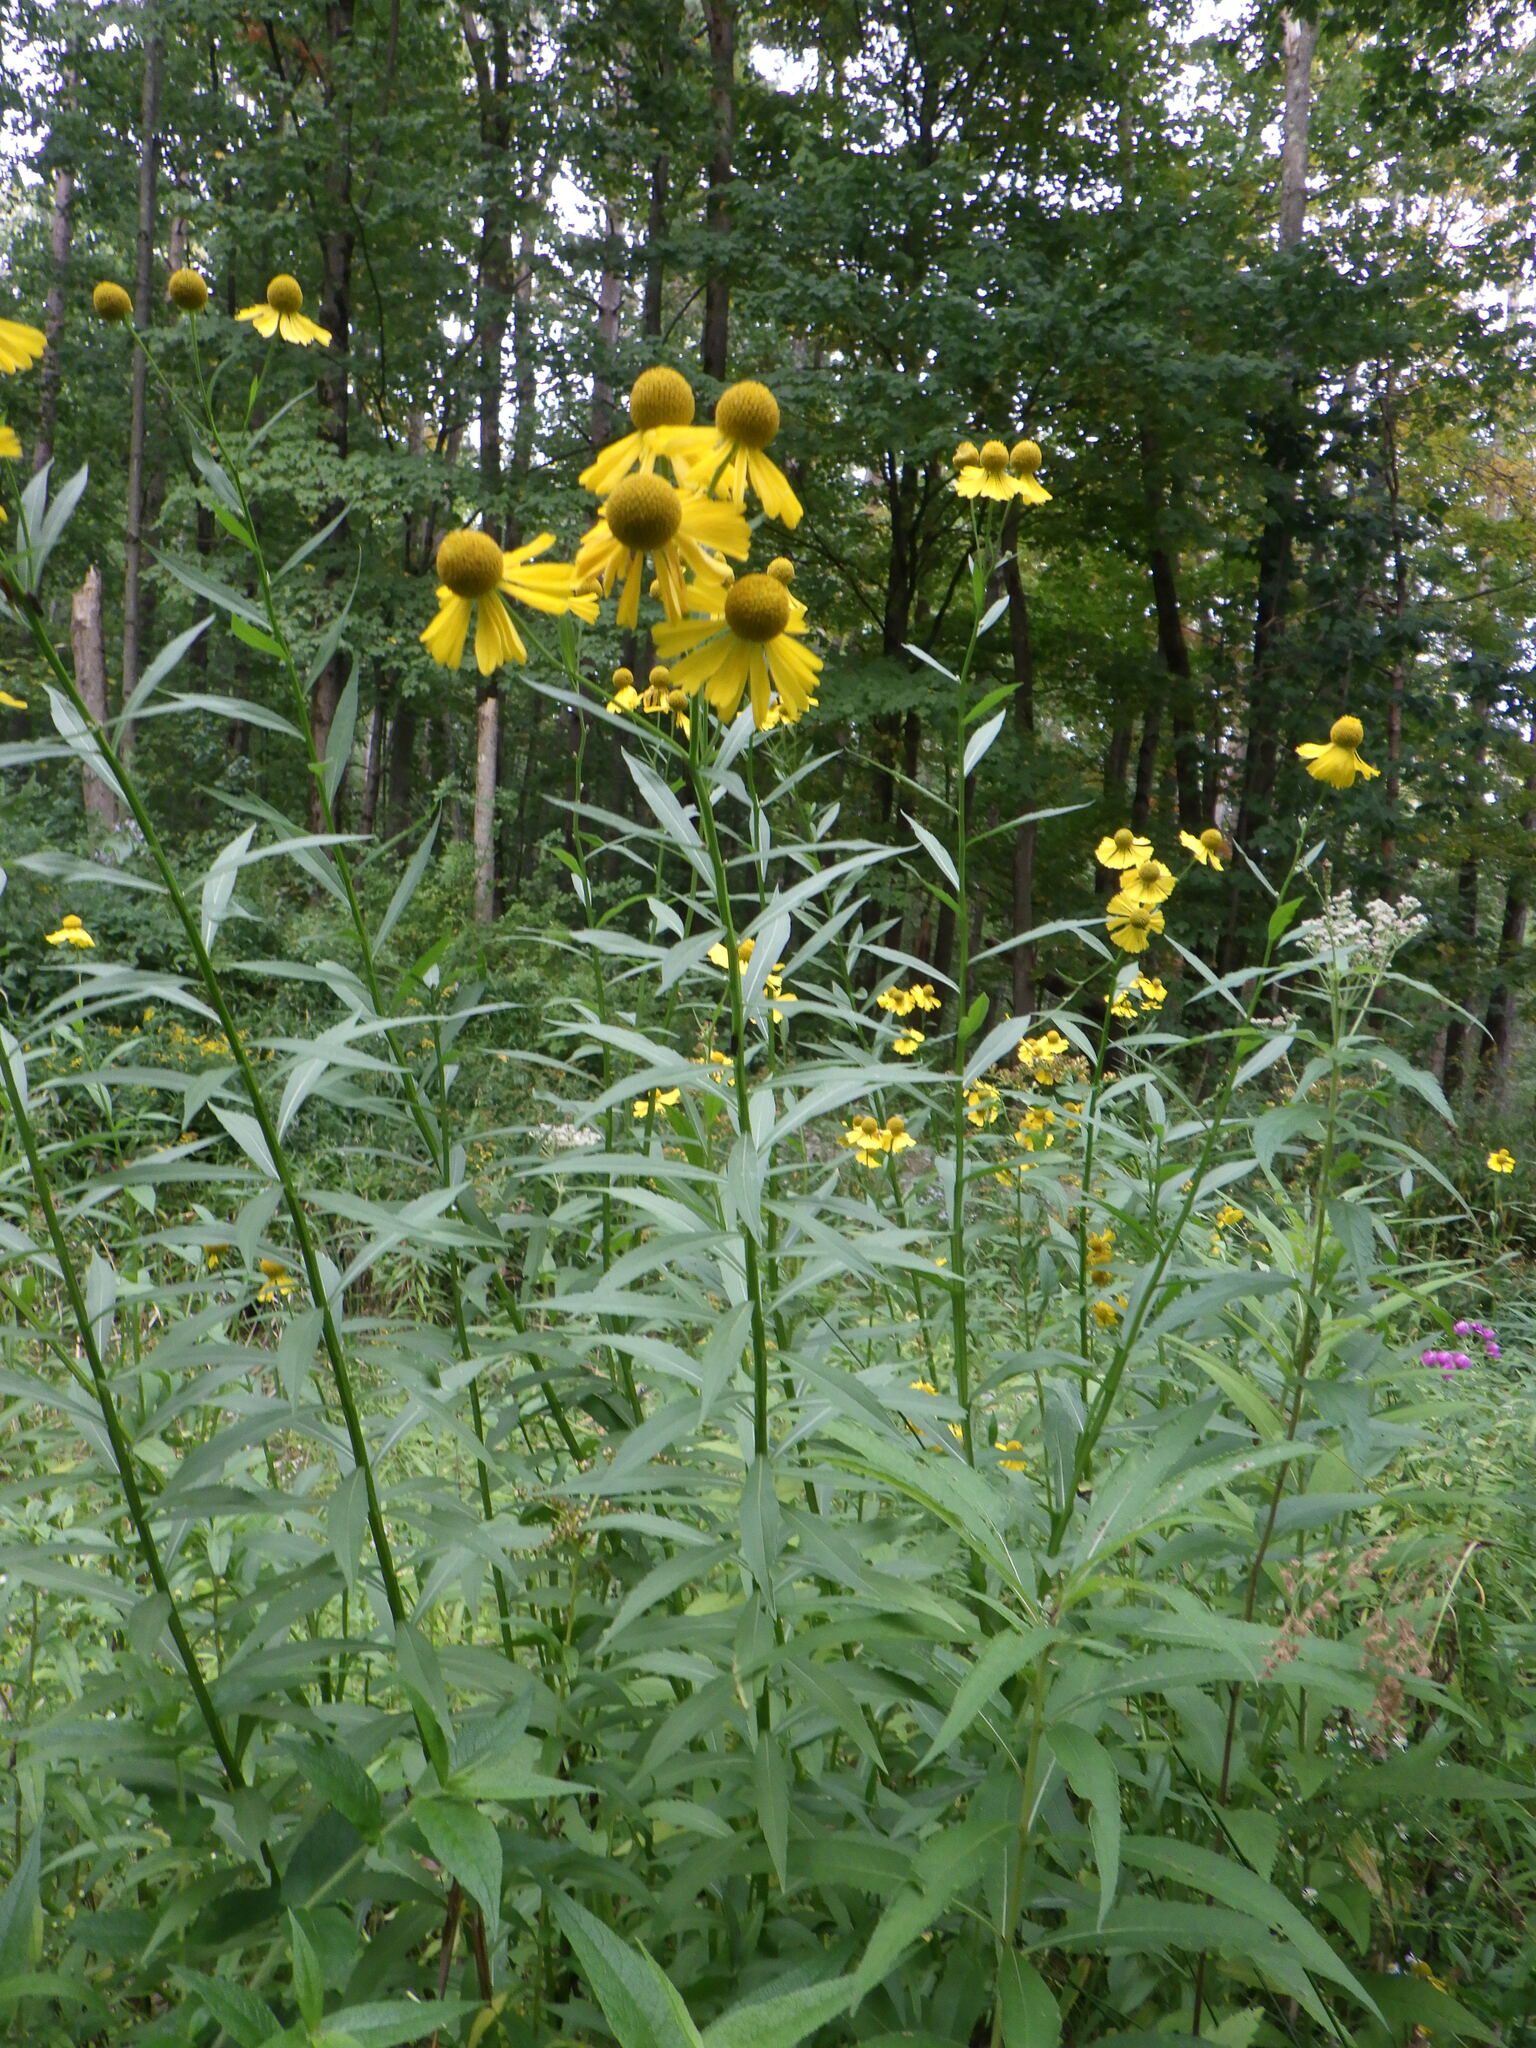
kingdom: Plantae
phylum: Tracheophyta
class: Magnoliopsida
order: Asterales
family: Asteraceae
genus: Helenium
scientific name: Helenium autumnale
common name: Sneezeweed
